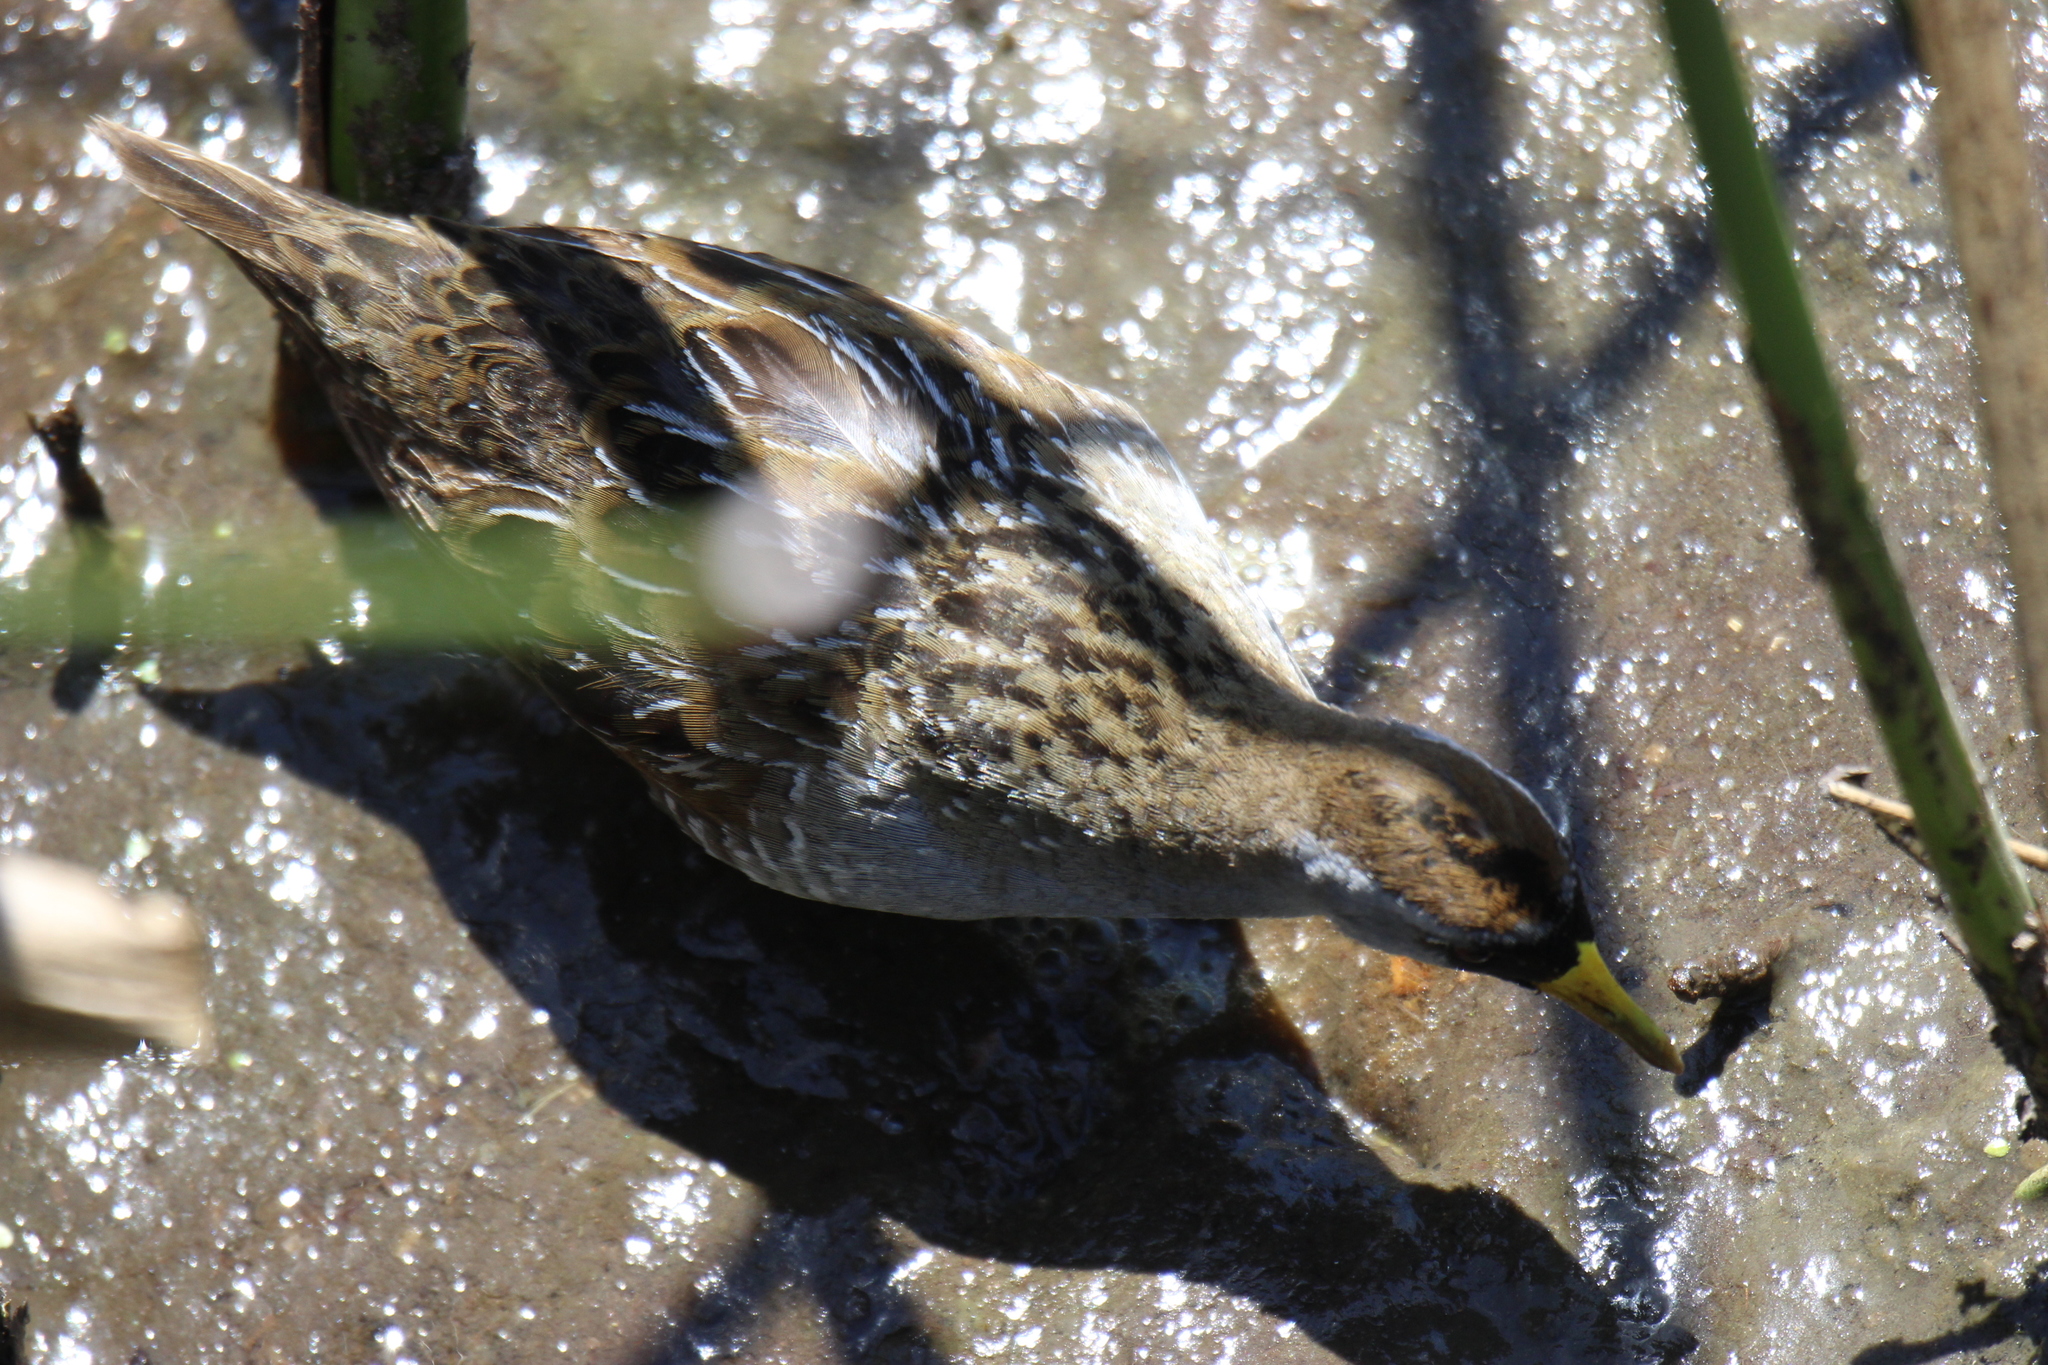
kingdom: Animalia
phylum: Chordata
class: Aves
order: Gruiformes
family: Rallidae
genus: Porzana
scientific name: Porzana carolina
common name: Sora
